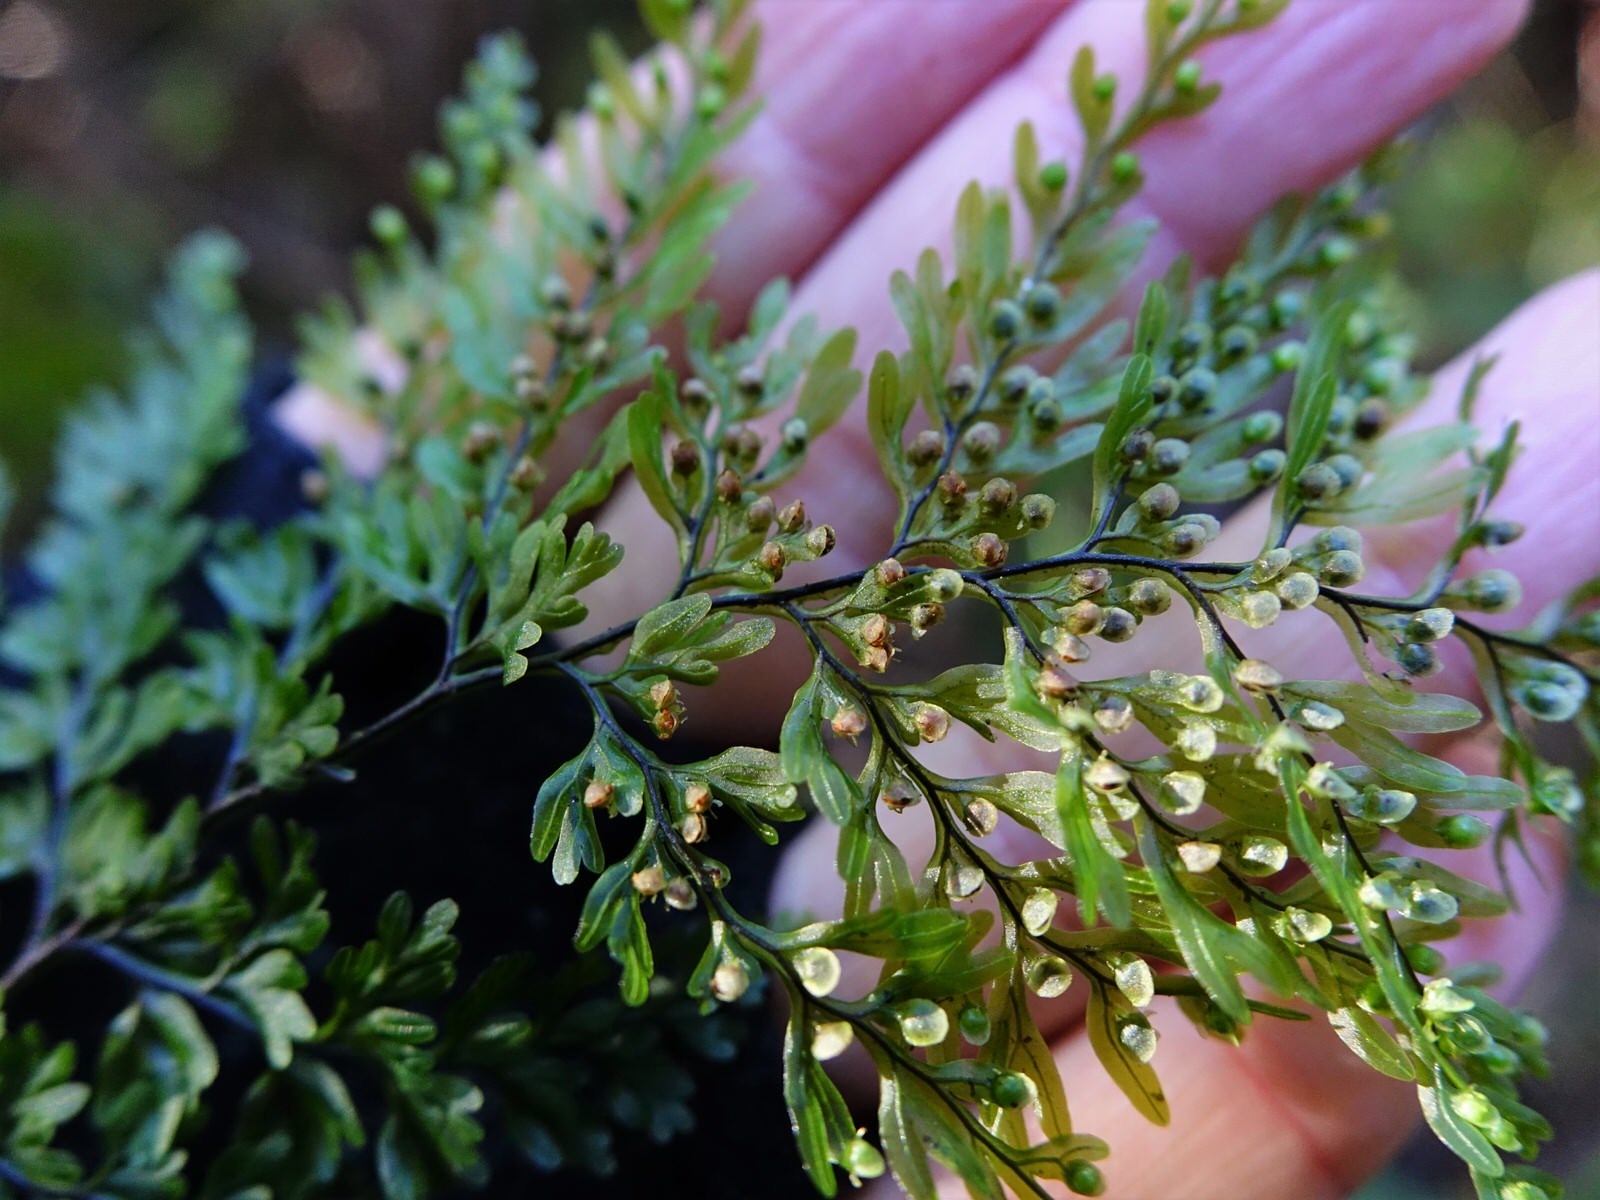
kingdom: Plantae
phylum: Tracheophyta
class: Polypodiopsida
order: Hymenophyllales
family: Hymenophyllaceae
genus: Hymenophyllum
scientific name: Hymenophyllum sanguinolentum
